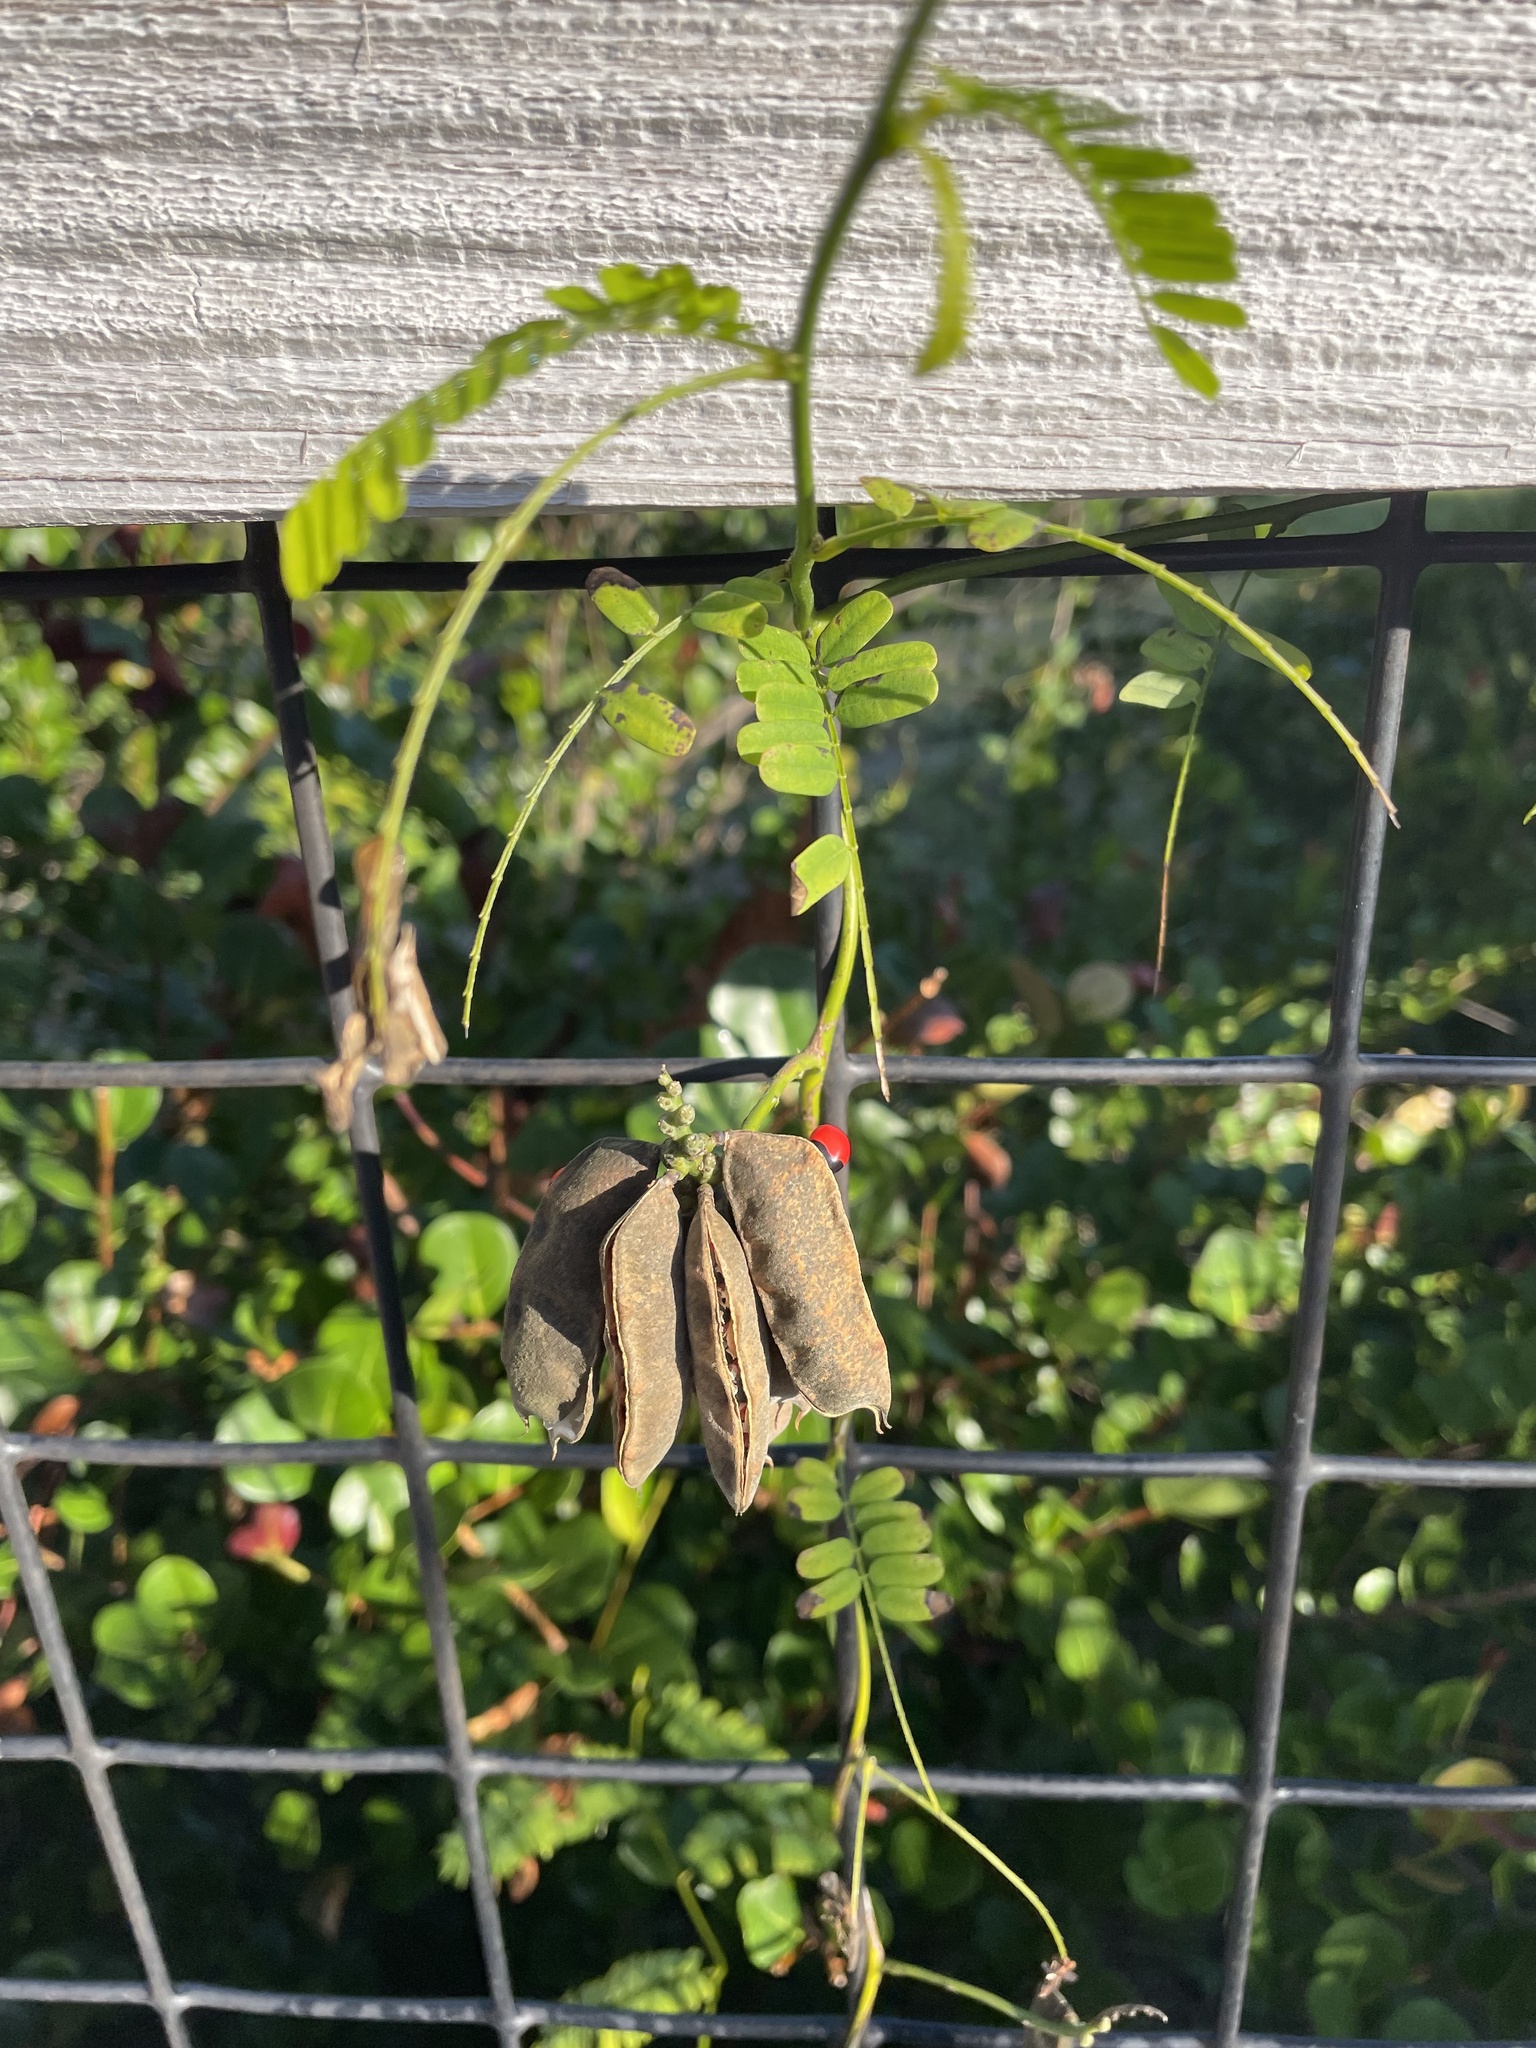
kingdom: Plantae
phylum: Tracheophyta
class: Magnoliopsida
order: Fabales
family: Fabaceae
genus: Abrus
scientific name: Abrus precatorius
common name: Rosarypea
